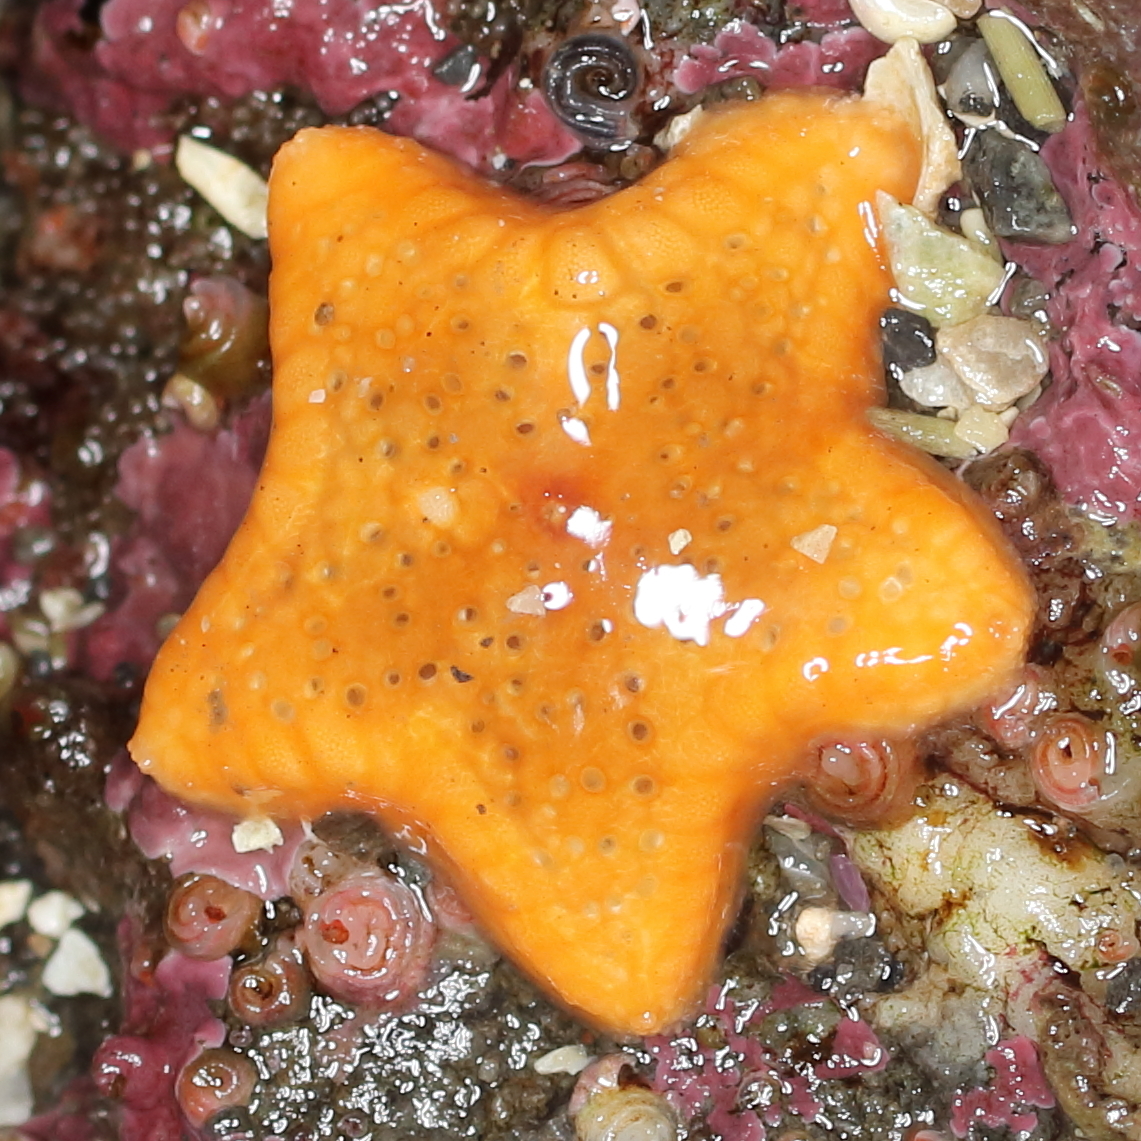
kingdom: Animalia
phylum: Echinodermata
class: Asteroidea
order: Valvatida
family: Asteropseidae
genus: Dermasterias
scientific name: Dermasterias imbricata
